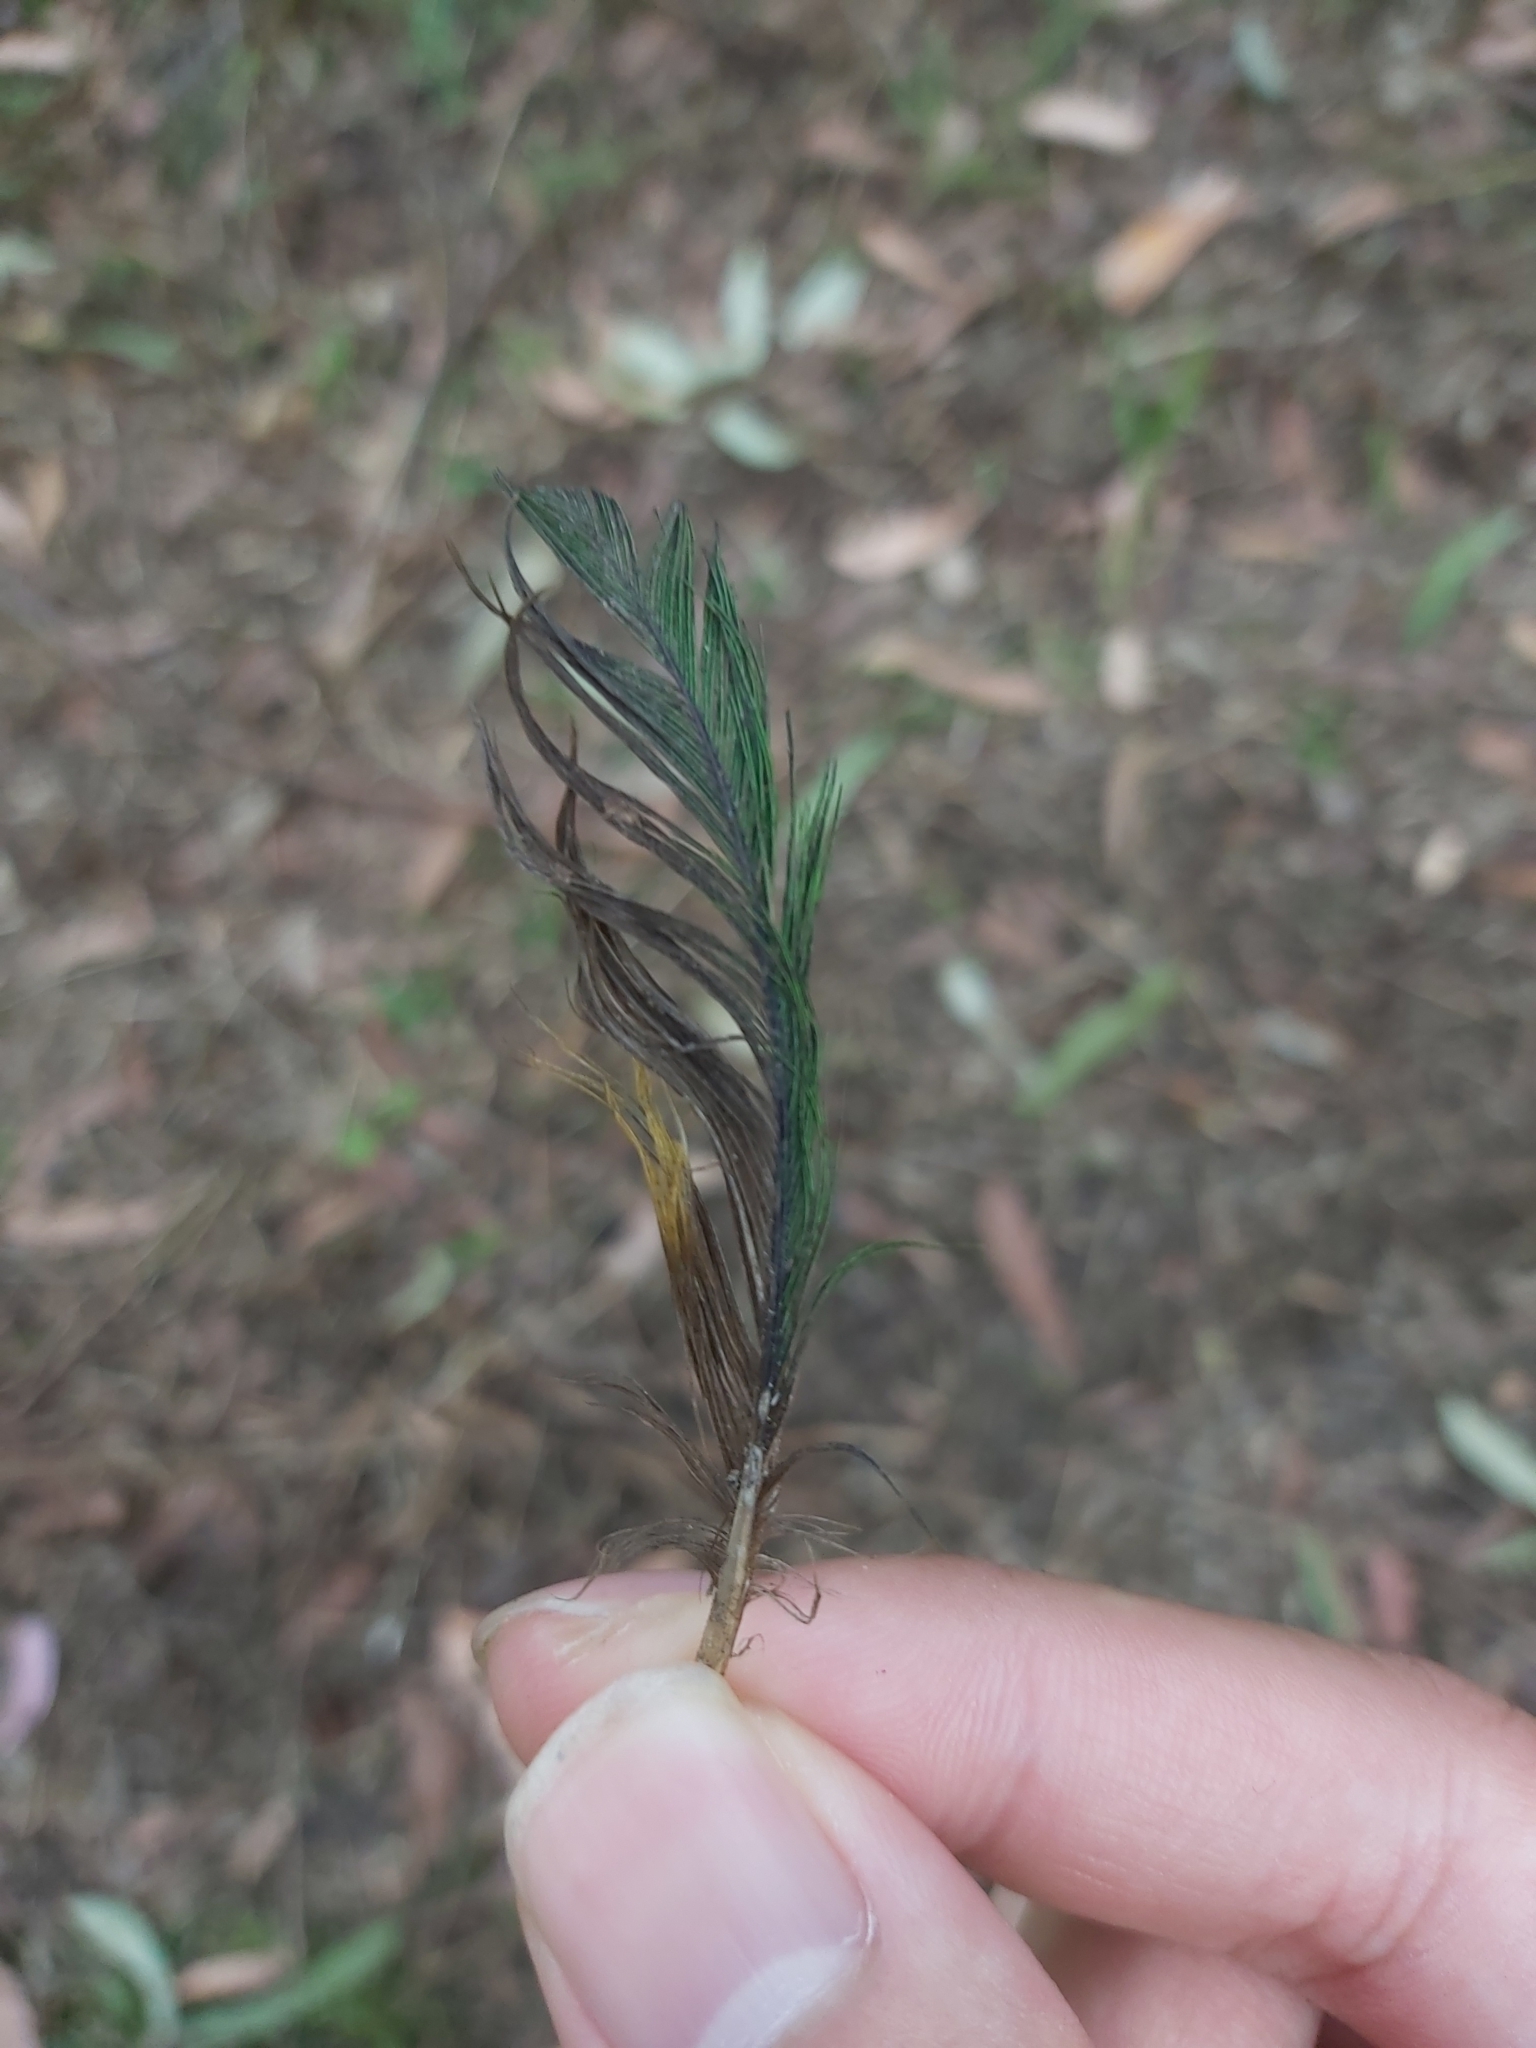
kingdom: Animalia
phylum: Chordata
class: Aves
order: Psittaciformes
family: Psittacidae
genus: Trichoglossus
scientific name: Trichoglossus haematodus
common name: Coconut lorikeet
